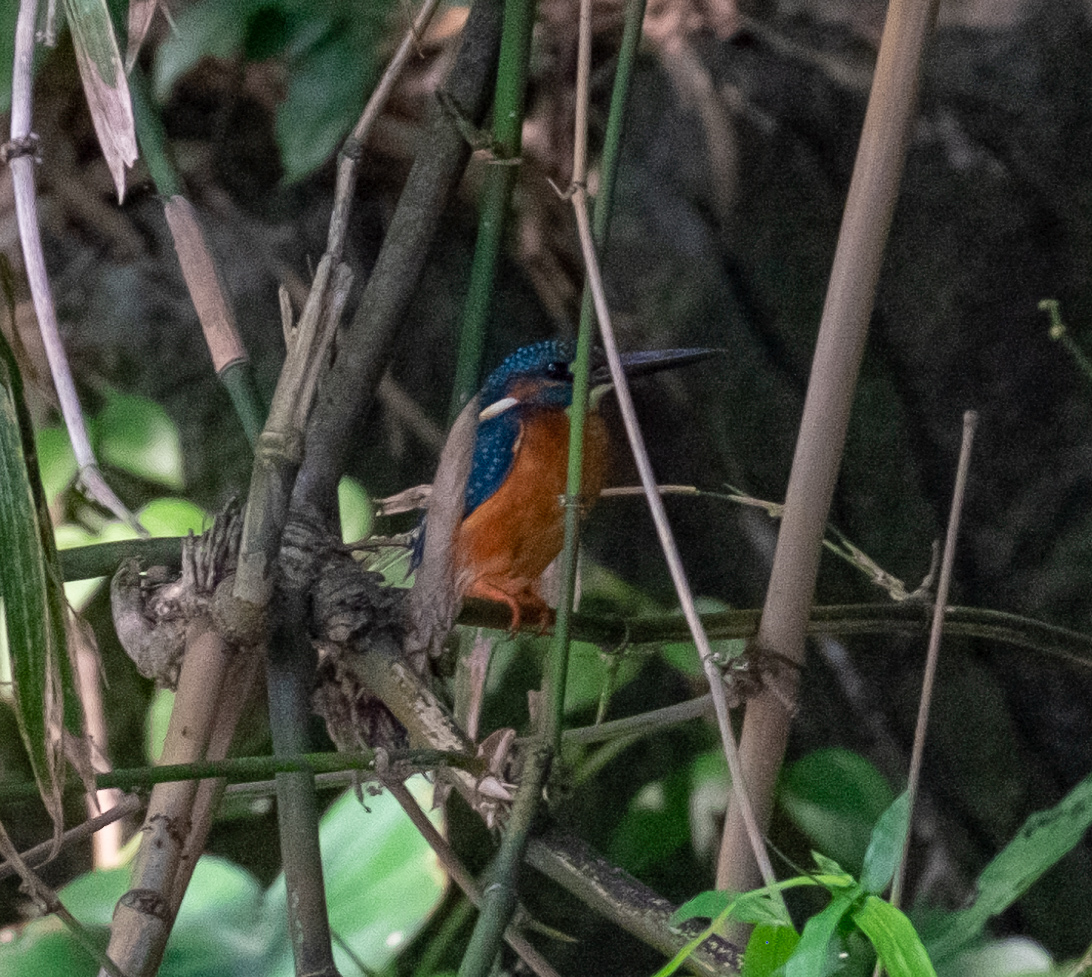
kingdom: Animalia
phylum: Chordata
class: Aves
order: Coraciiformes
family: Alcedinidae
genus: Alcedo
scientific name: Alcedo atthis
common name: Common kingfisher
